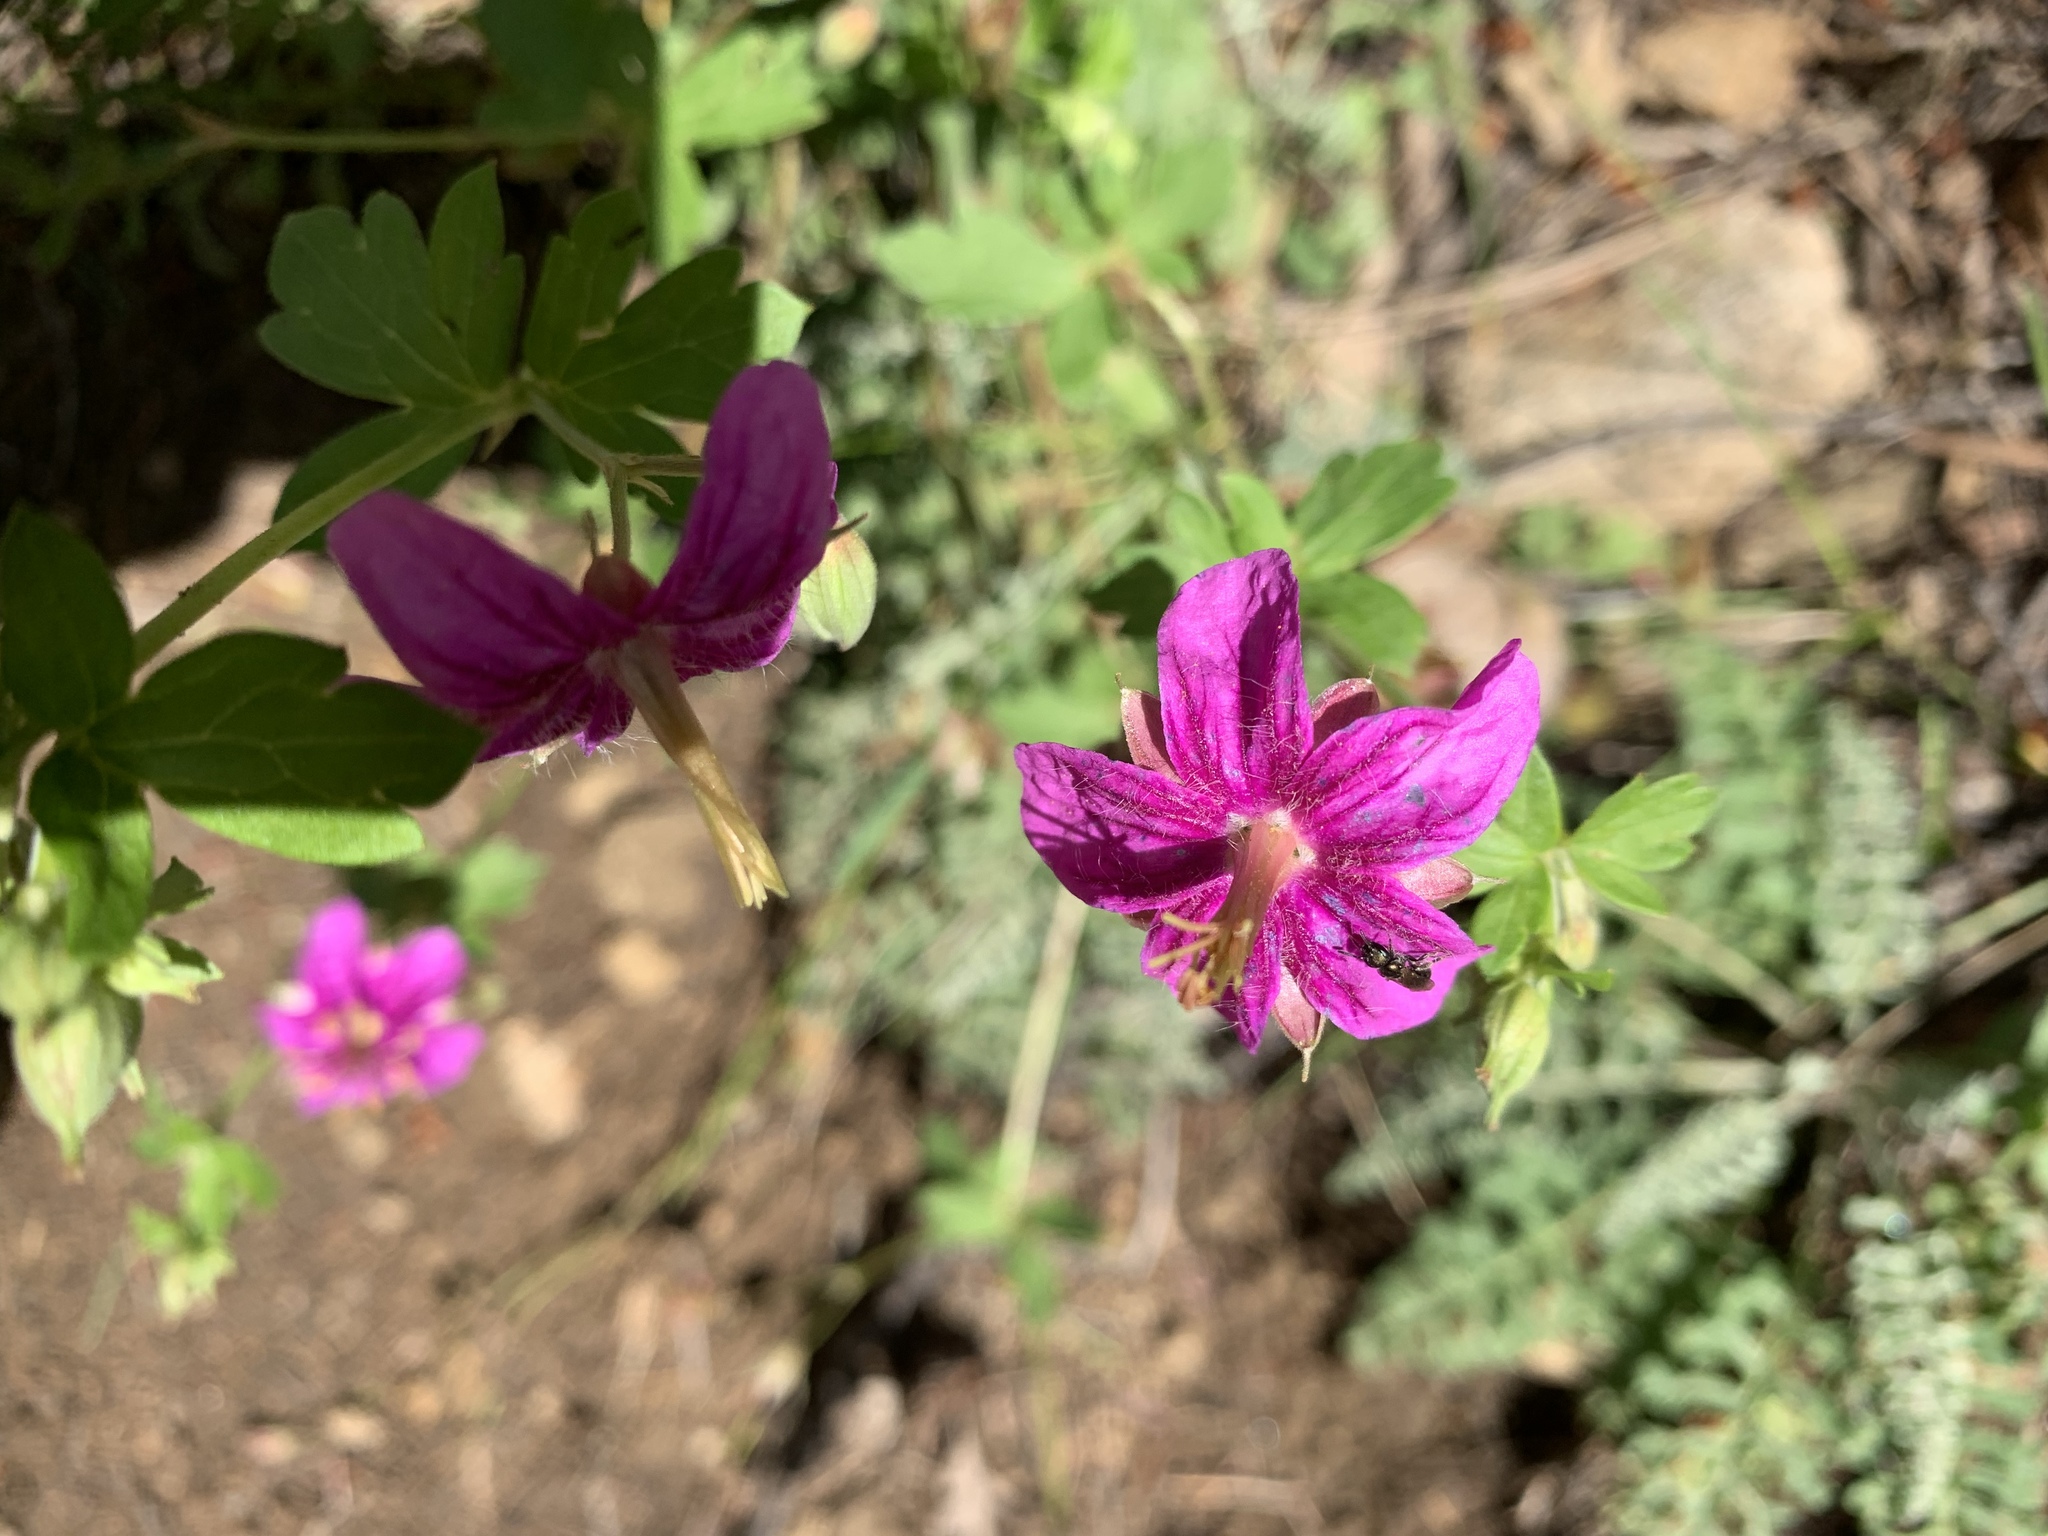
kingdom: Plantae
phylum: Tracheophyta
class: Magnoliopsida
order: Geraniales
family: Geraniaceae
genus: Geranium
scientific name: Geranium caespitosum
